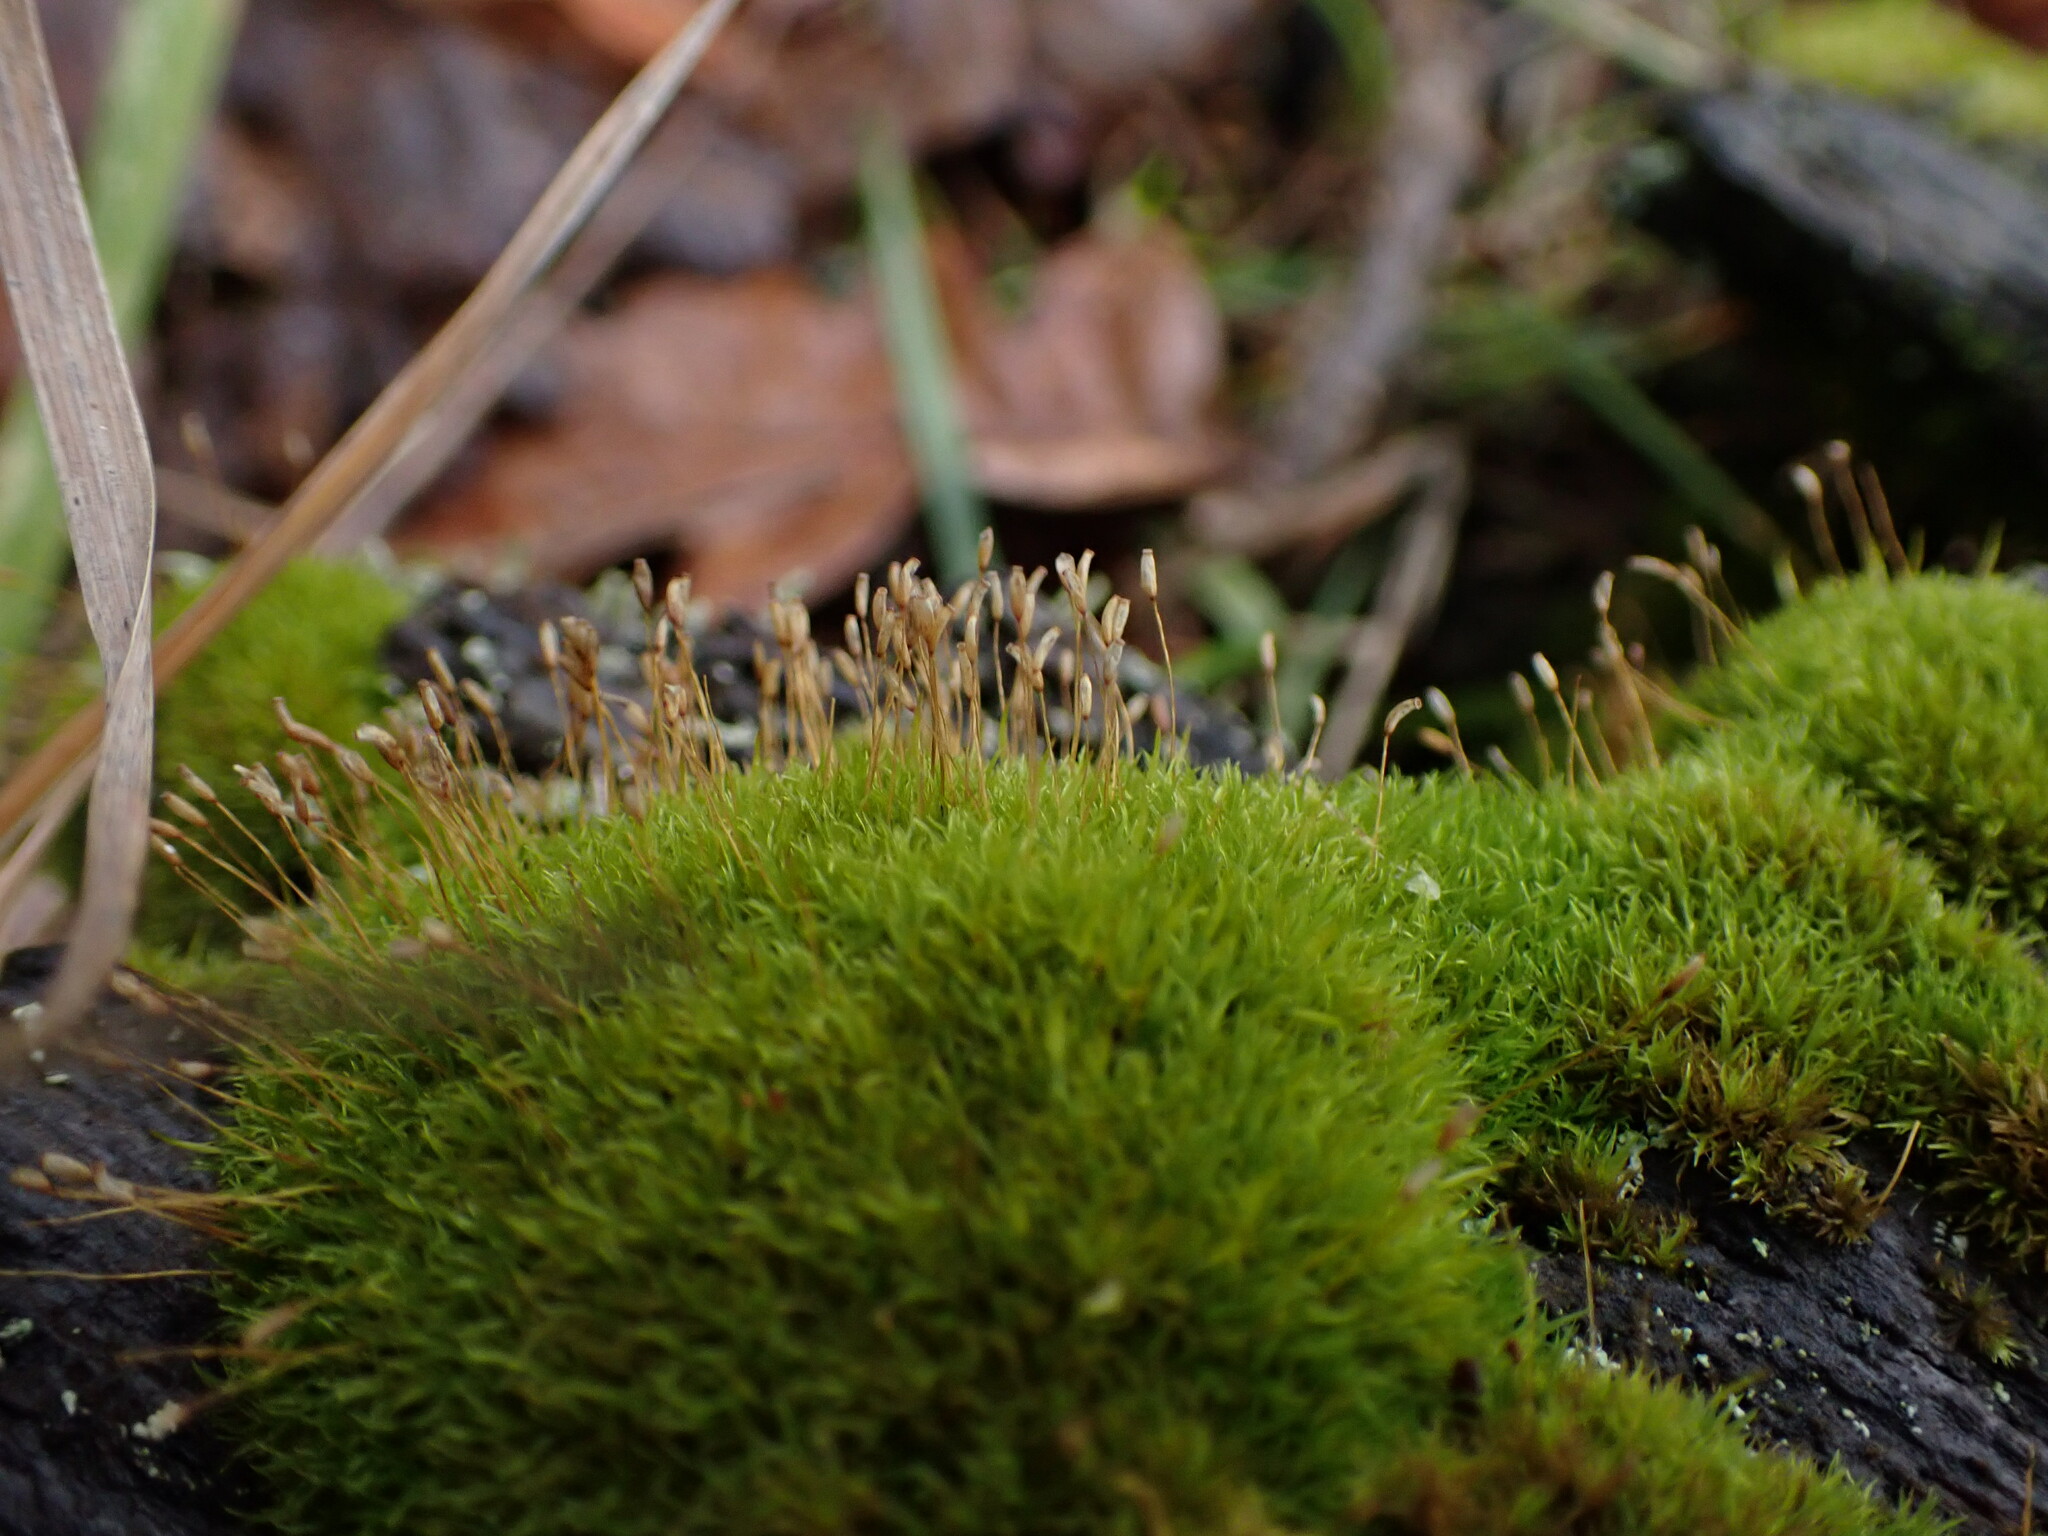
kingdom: Plantae
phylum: Bryophyta
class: Bryopsida
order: Dicranales
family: Rhabdoweisiaceae
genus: Dicranoweisia
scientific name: Dicranoweisia cirrata
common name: Common pincushion
